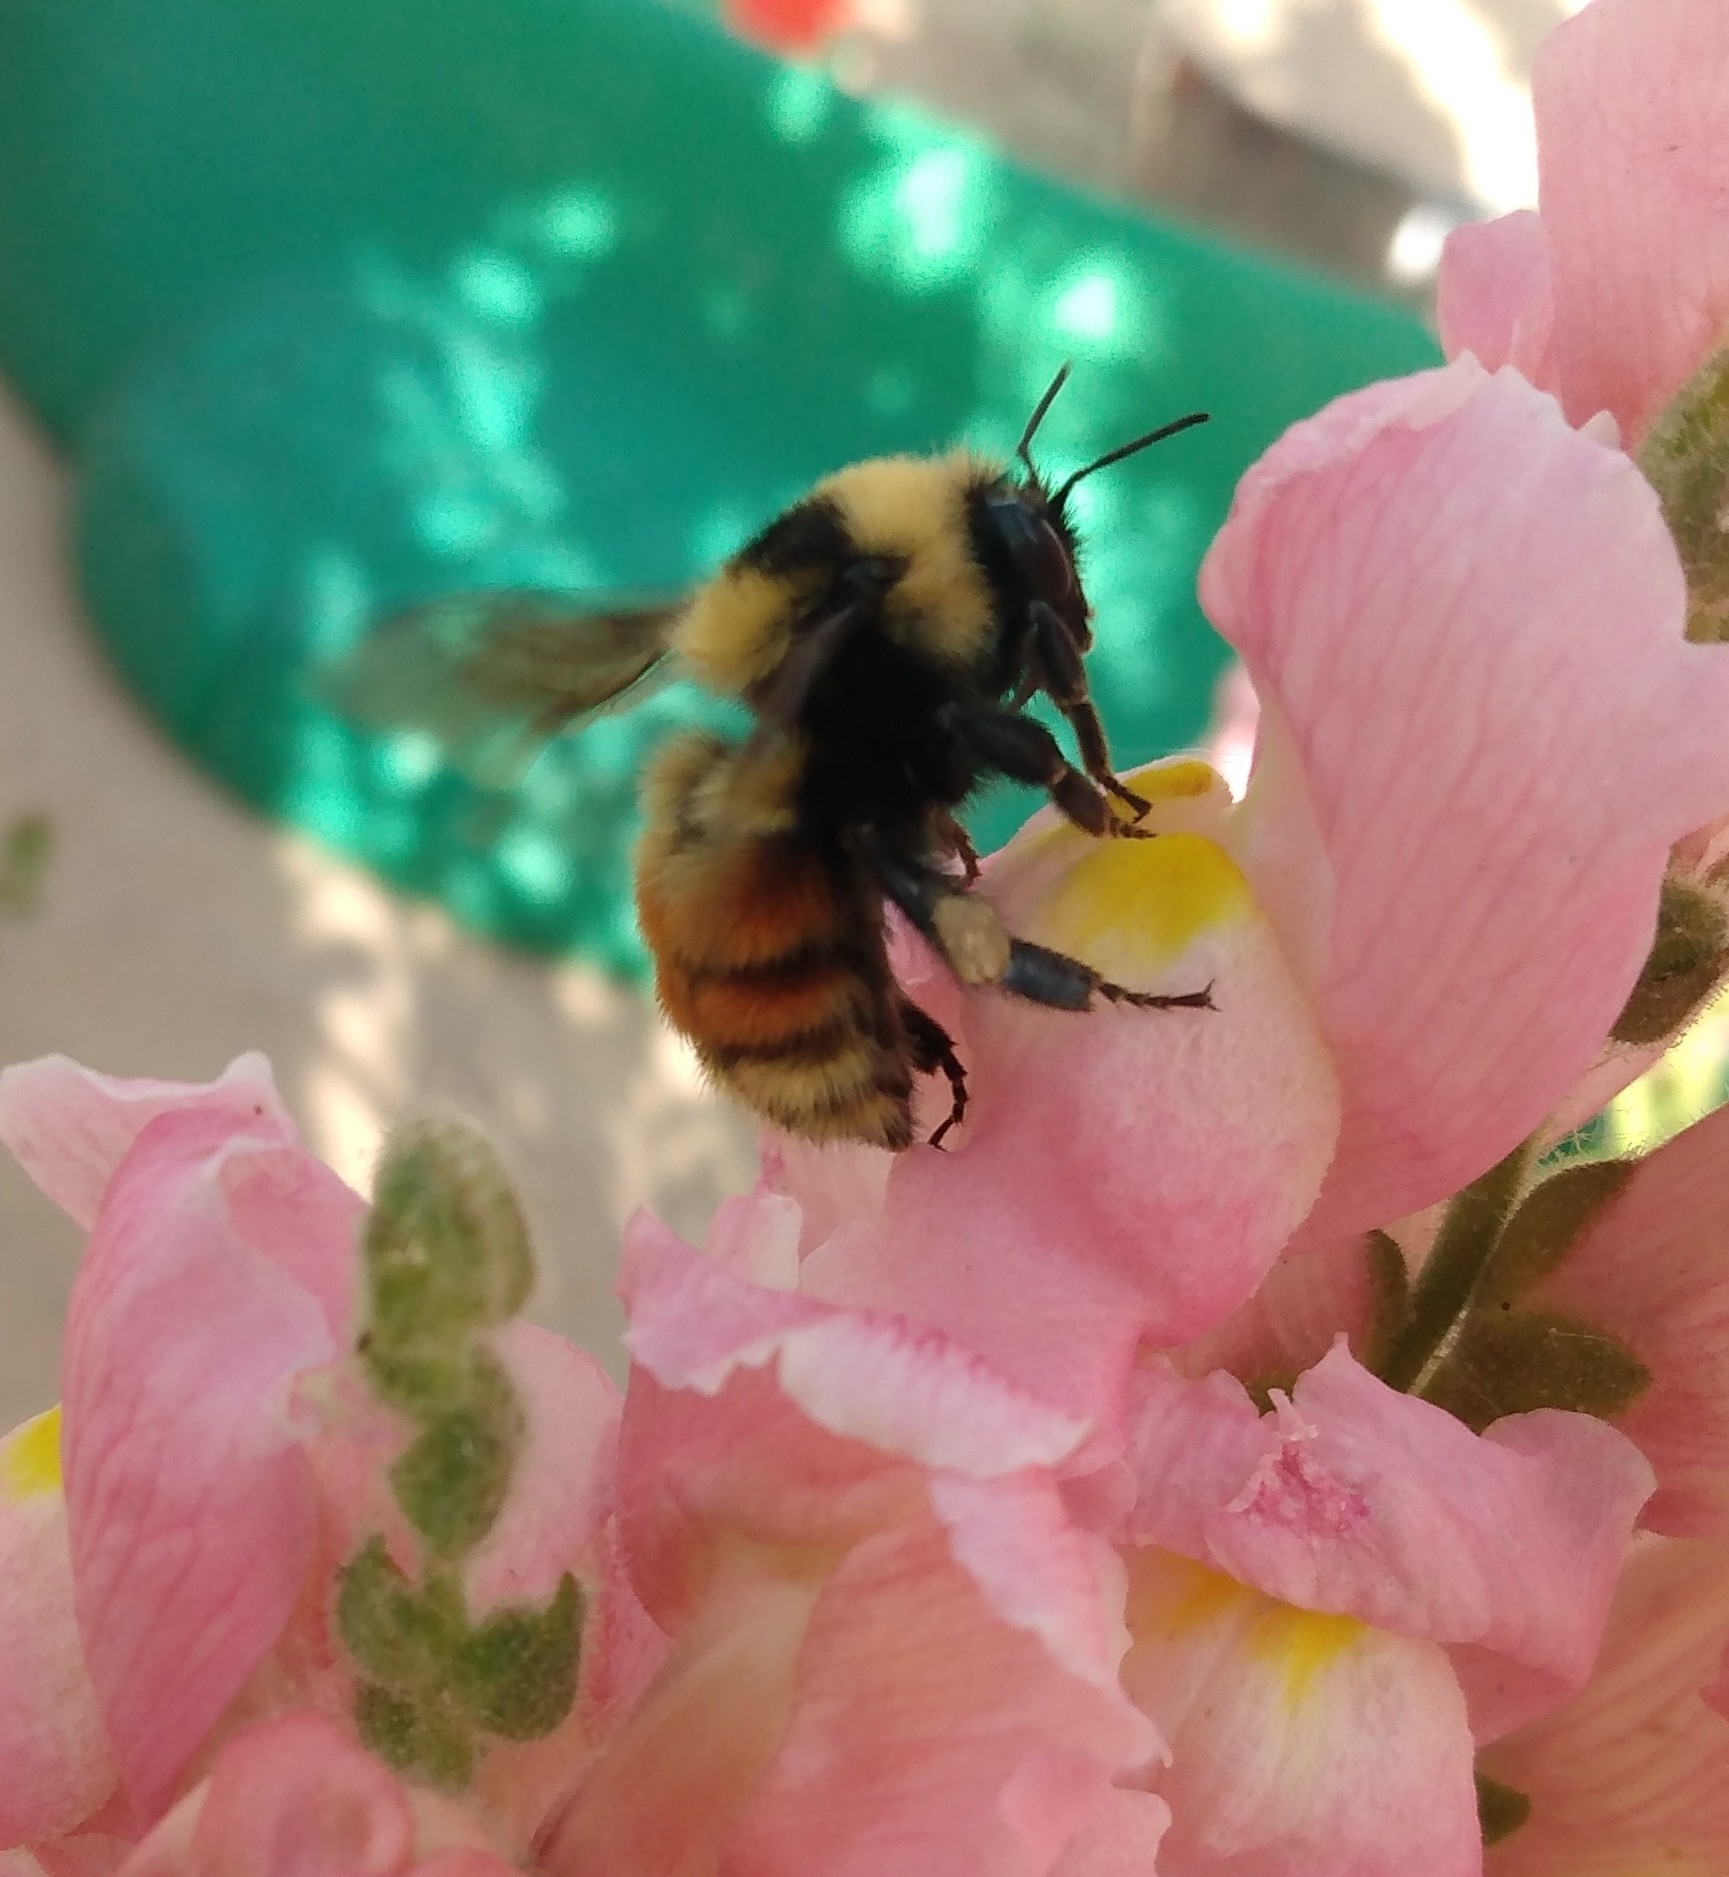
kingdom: Animalia
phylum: Arthropoda
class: Insecta
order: Hymenoptera
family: Apidae
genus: Bombus
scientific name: Bombus rufocinctus
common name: Red-belted bumble bee
